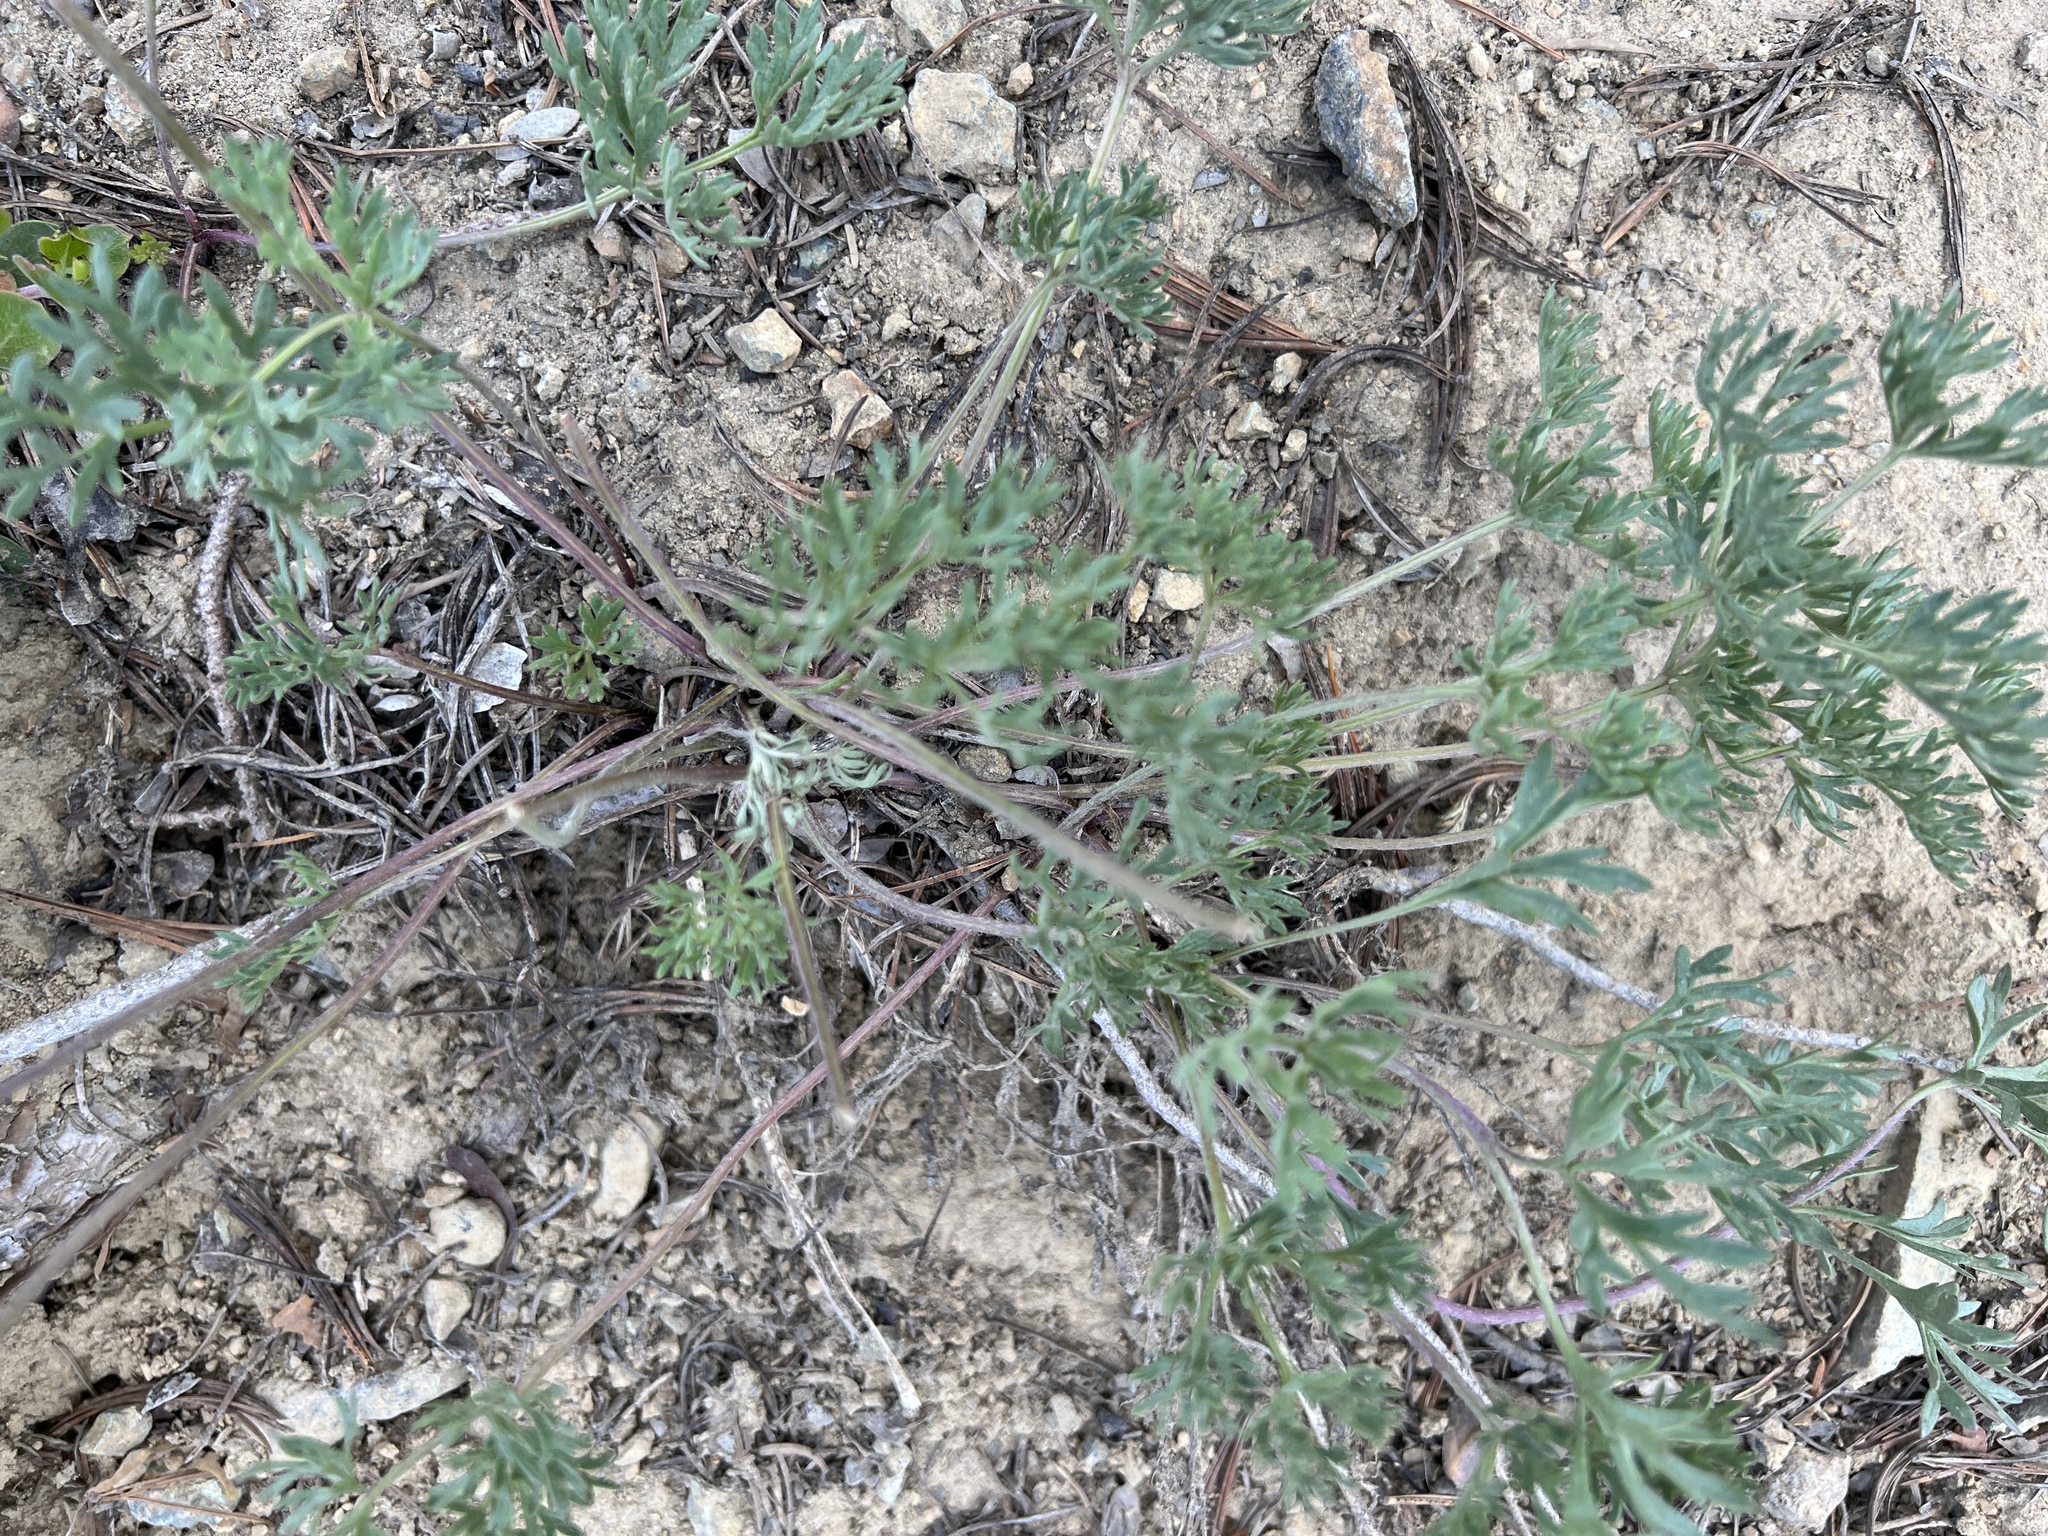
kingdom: Plantae
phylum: Tracheophyta
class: Magnoliopsida
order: Ranunculales
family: Ranunculaceae
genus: Anemone
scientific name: Anemone drummondii
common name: Drummond's anemone
